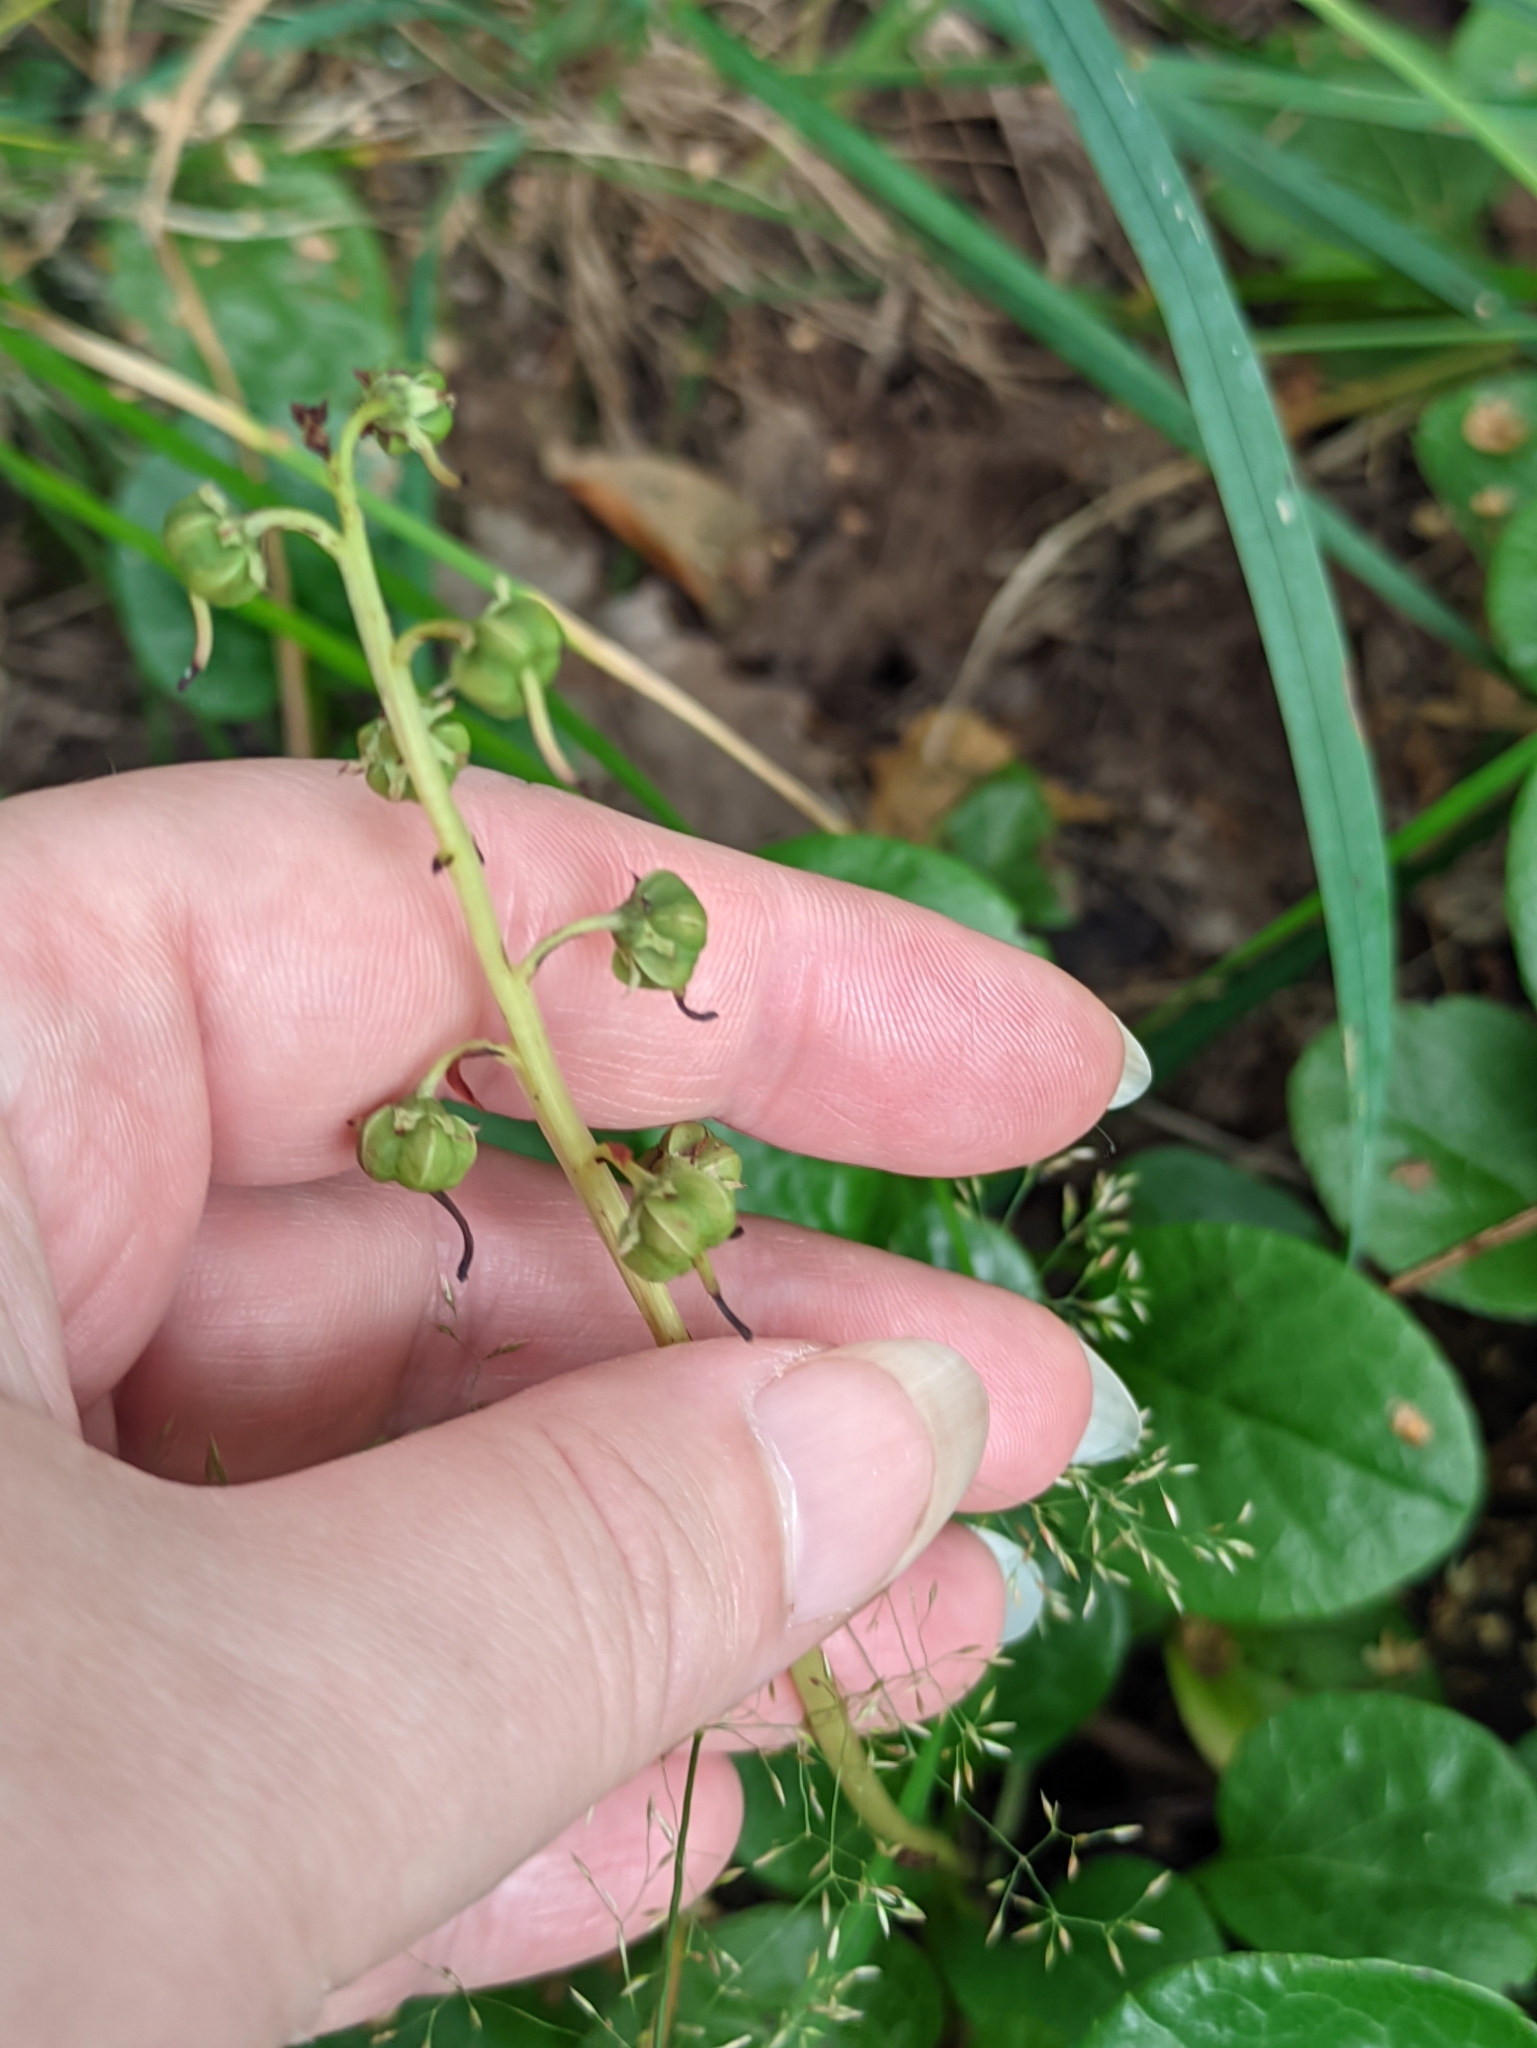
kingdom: Plantae
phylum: Tracheophyta
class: Magnoliopsida
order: Ericales
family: Ericaceae
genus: Pyrola
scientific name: Pyrola rotundifolia
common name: Round-leaved wintergreen
